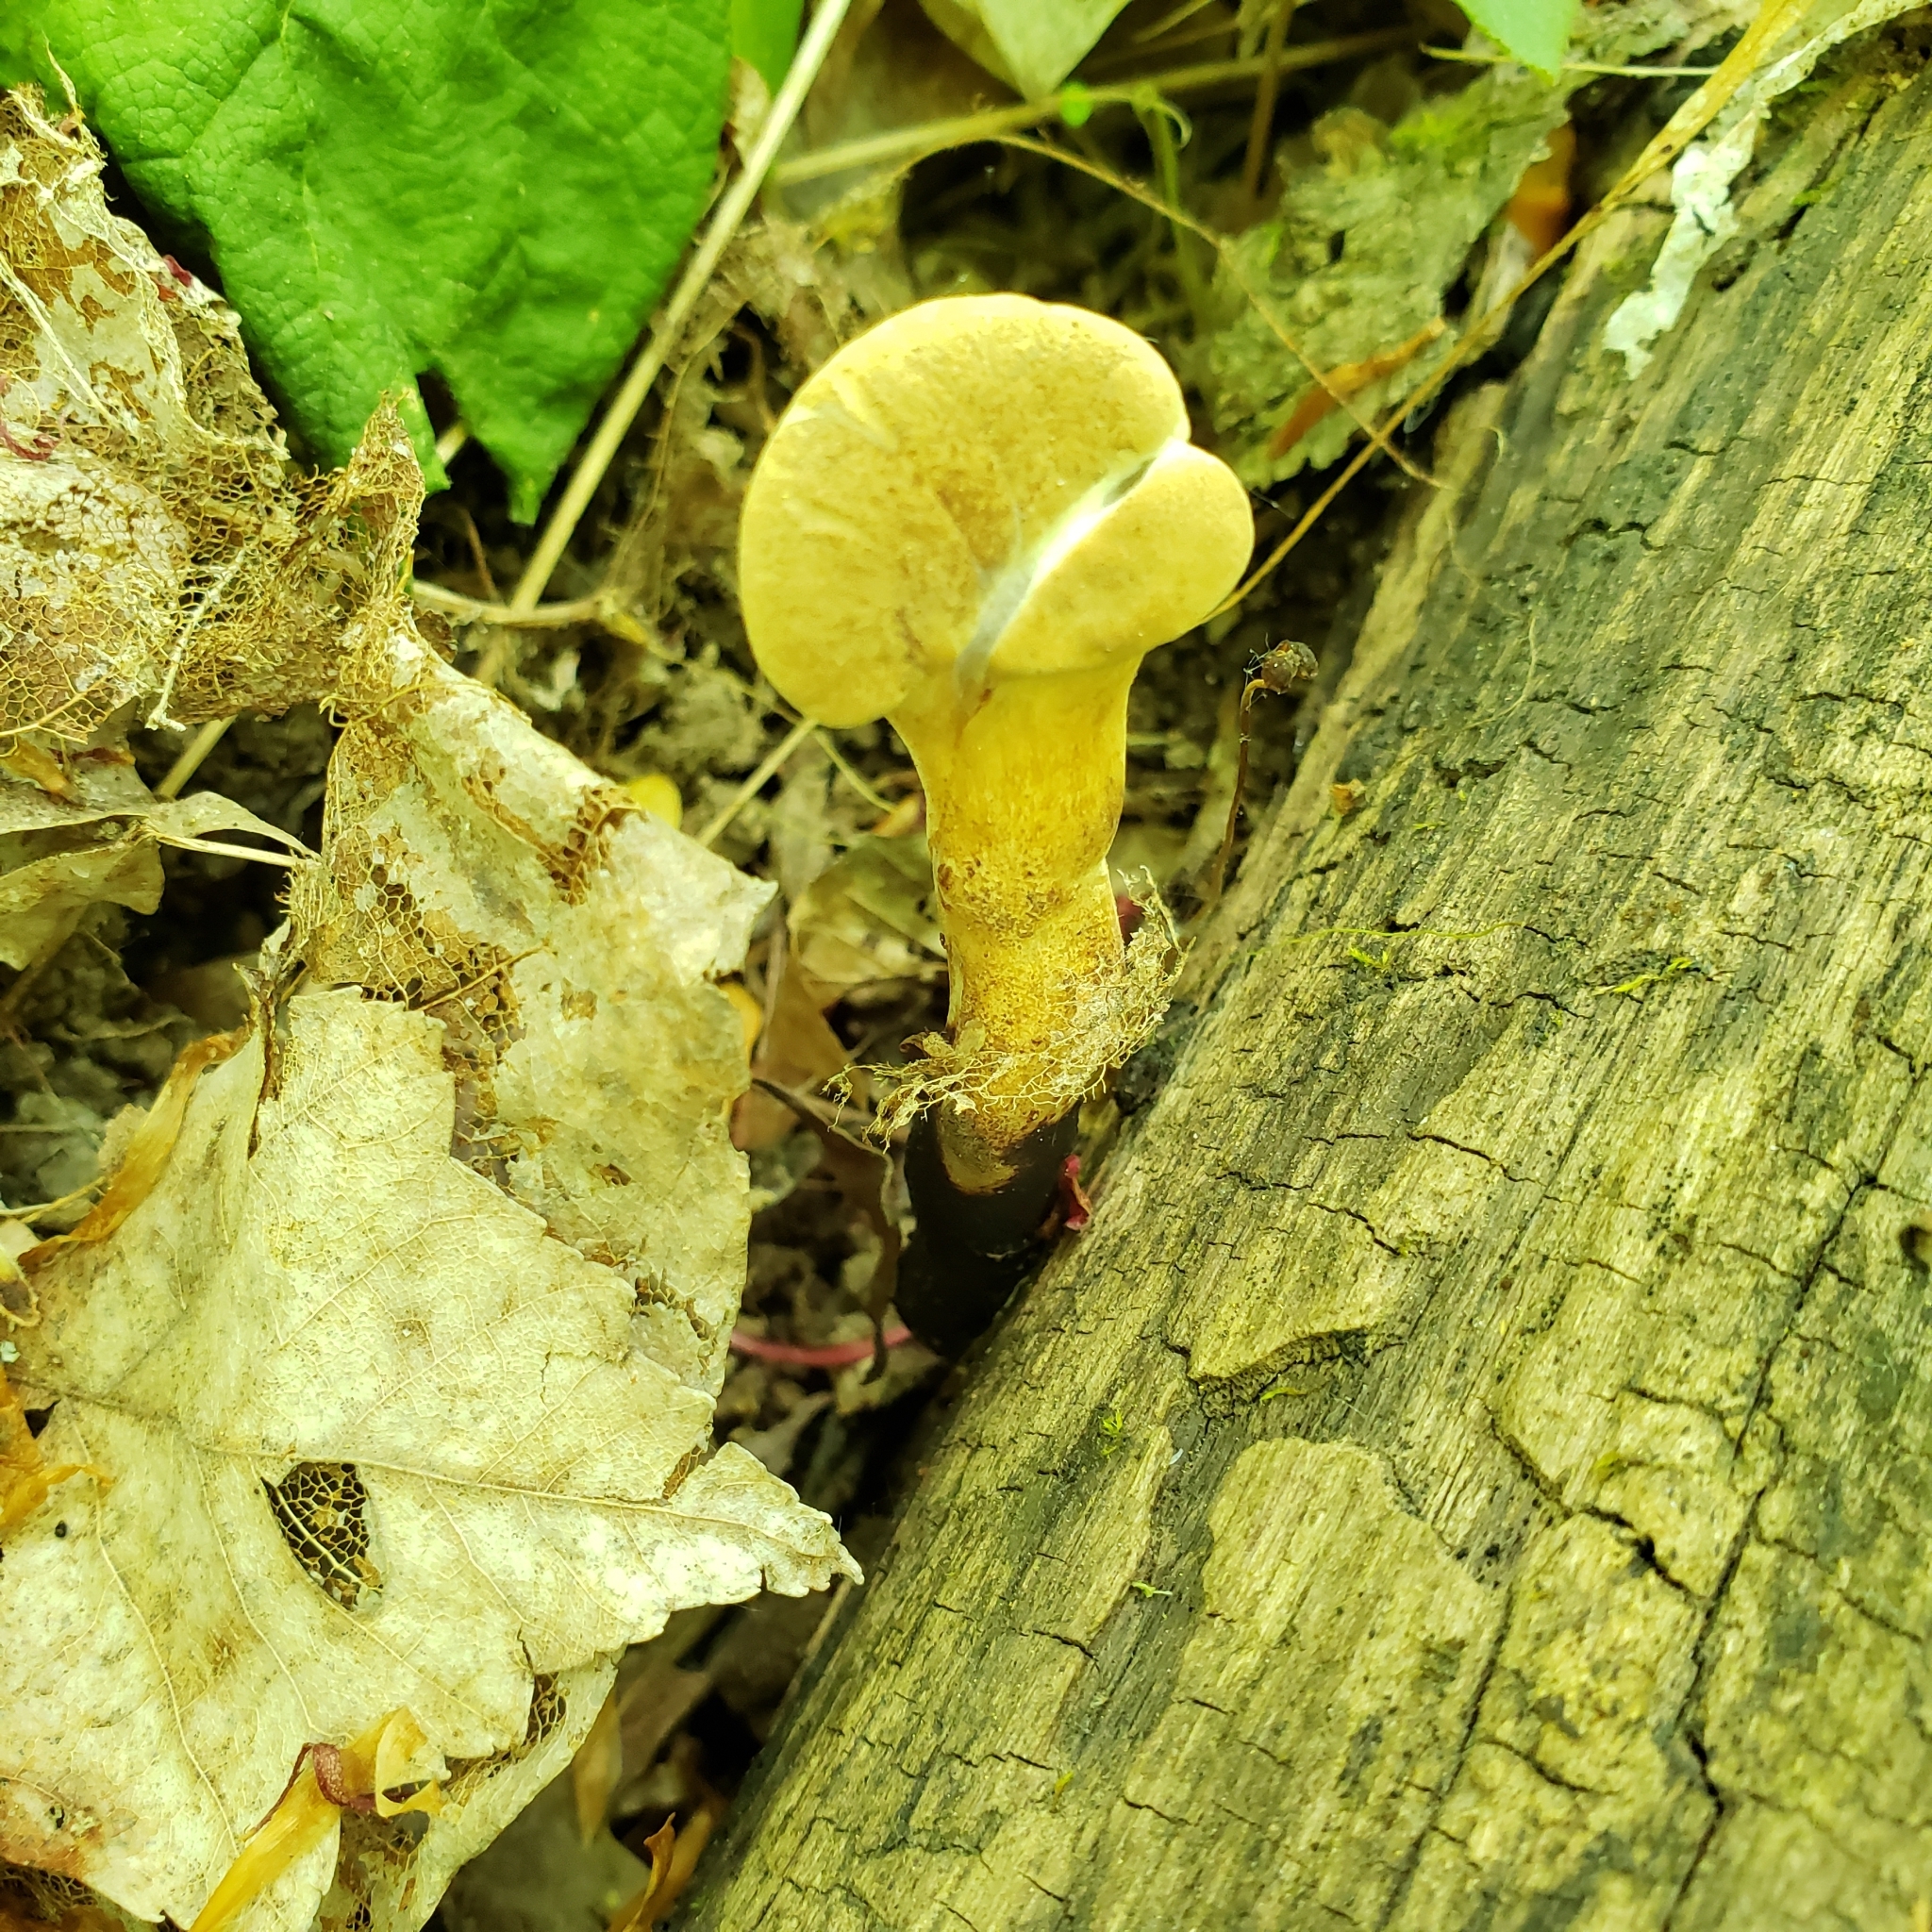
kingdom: Fungi
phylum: Basidiomycota
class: Agaricomycetes
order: Polyporales
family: Polyporaceae
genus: Cerioporus
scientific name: Cerioporus varius
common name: Elegant polypore
